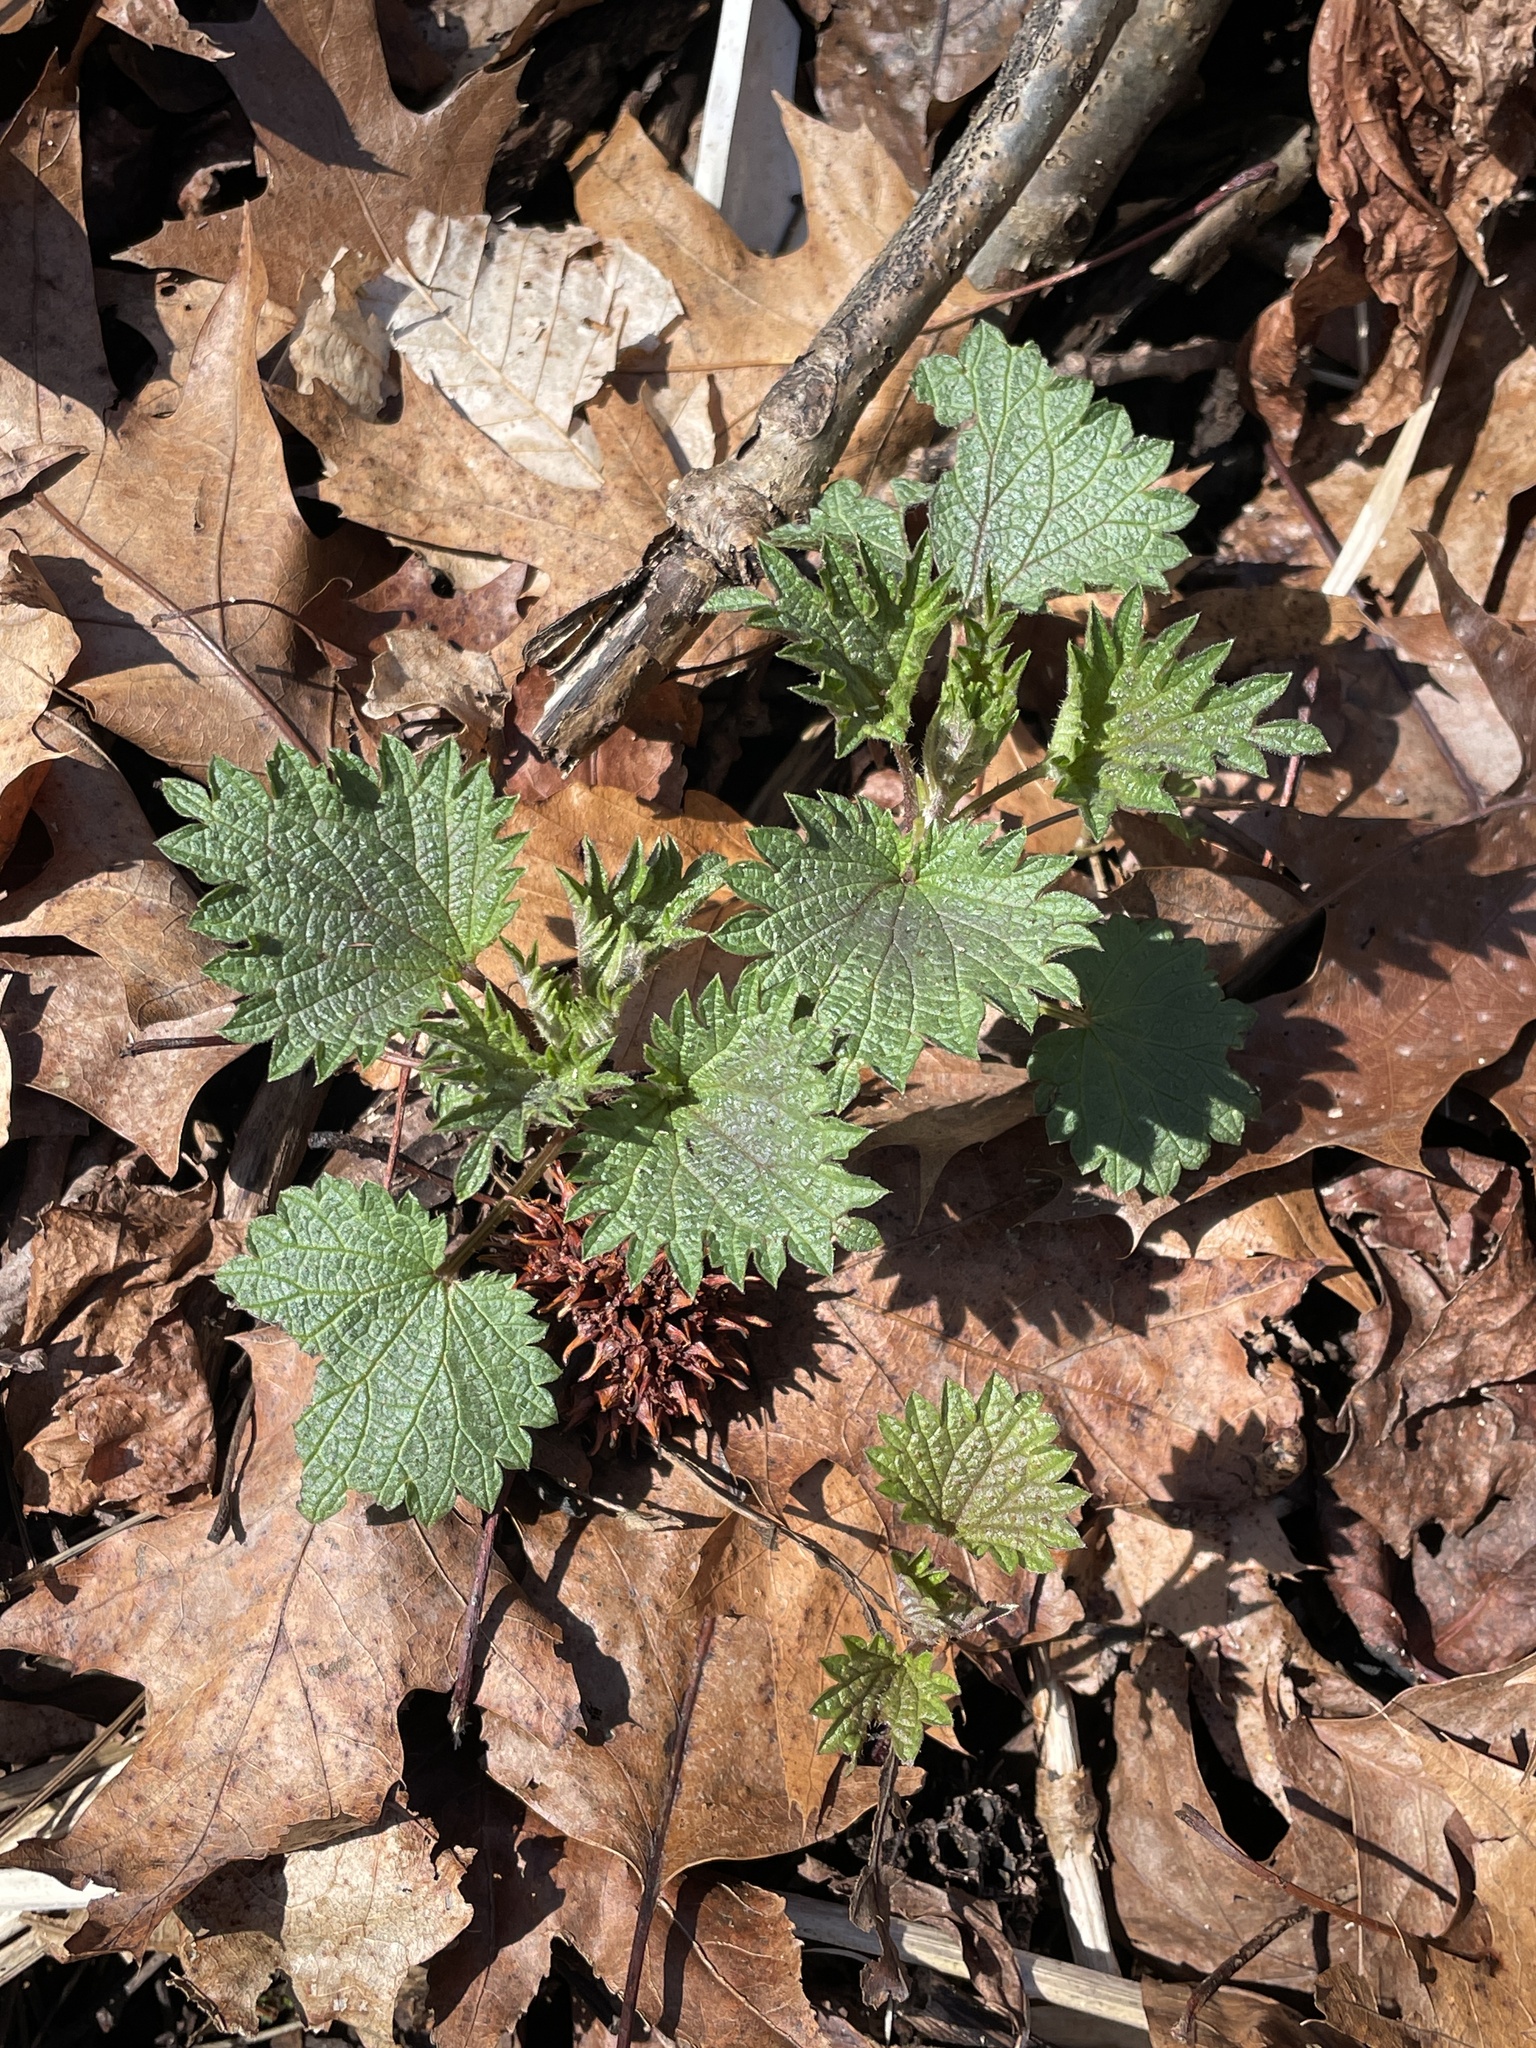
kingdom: Plantae
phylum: Tracheophyta
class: Magnoliopsida
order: Rosales
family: Urticaceae
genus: Urtica
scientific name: Urtica dioica
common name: Common nettle
